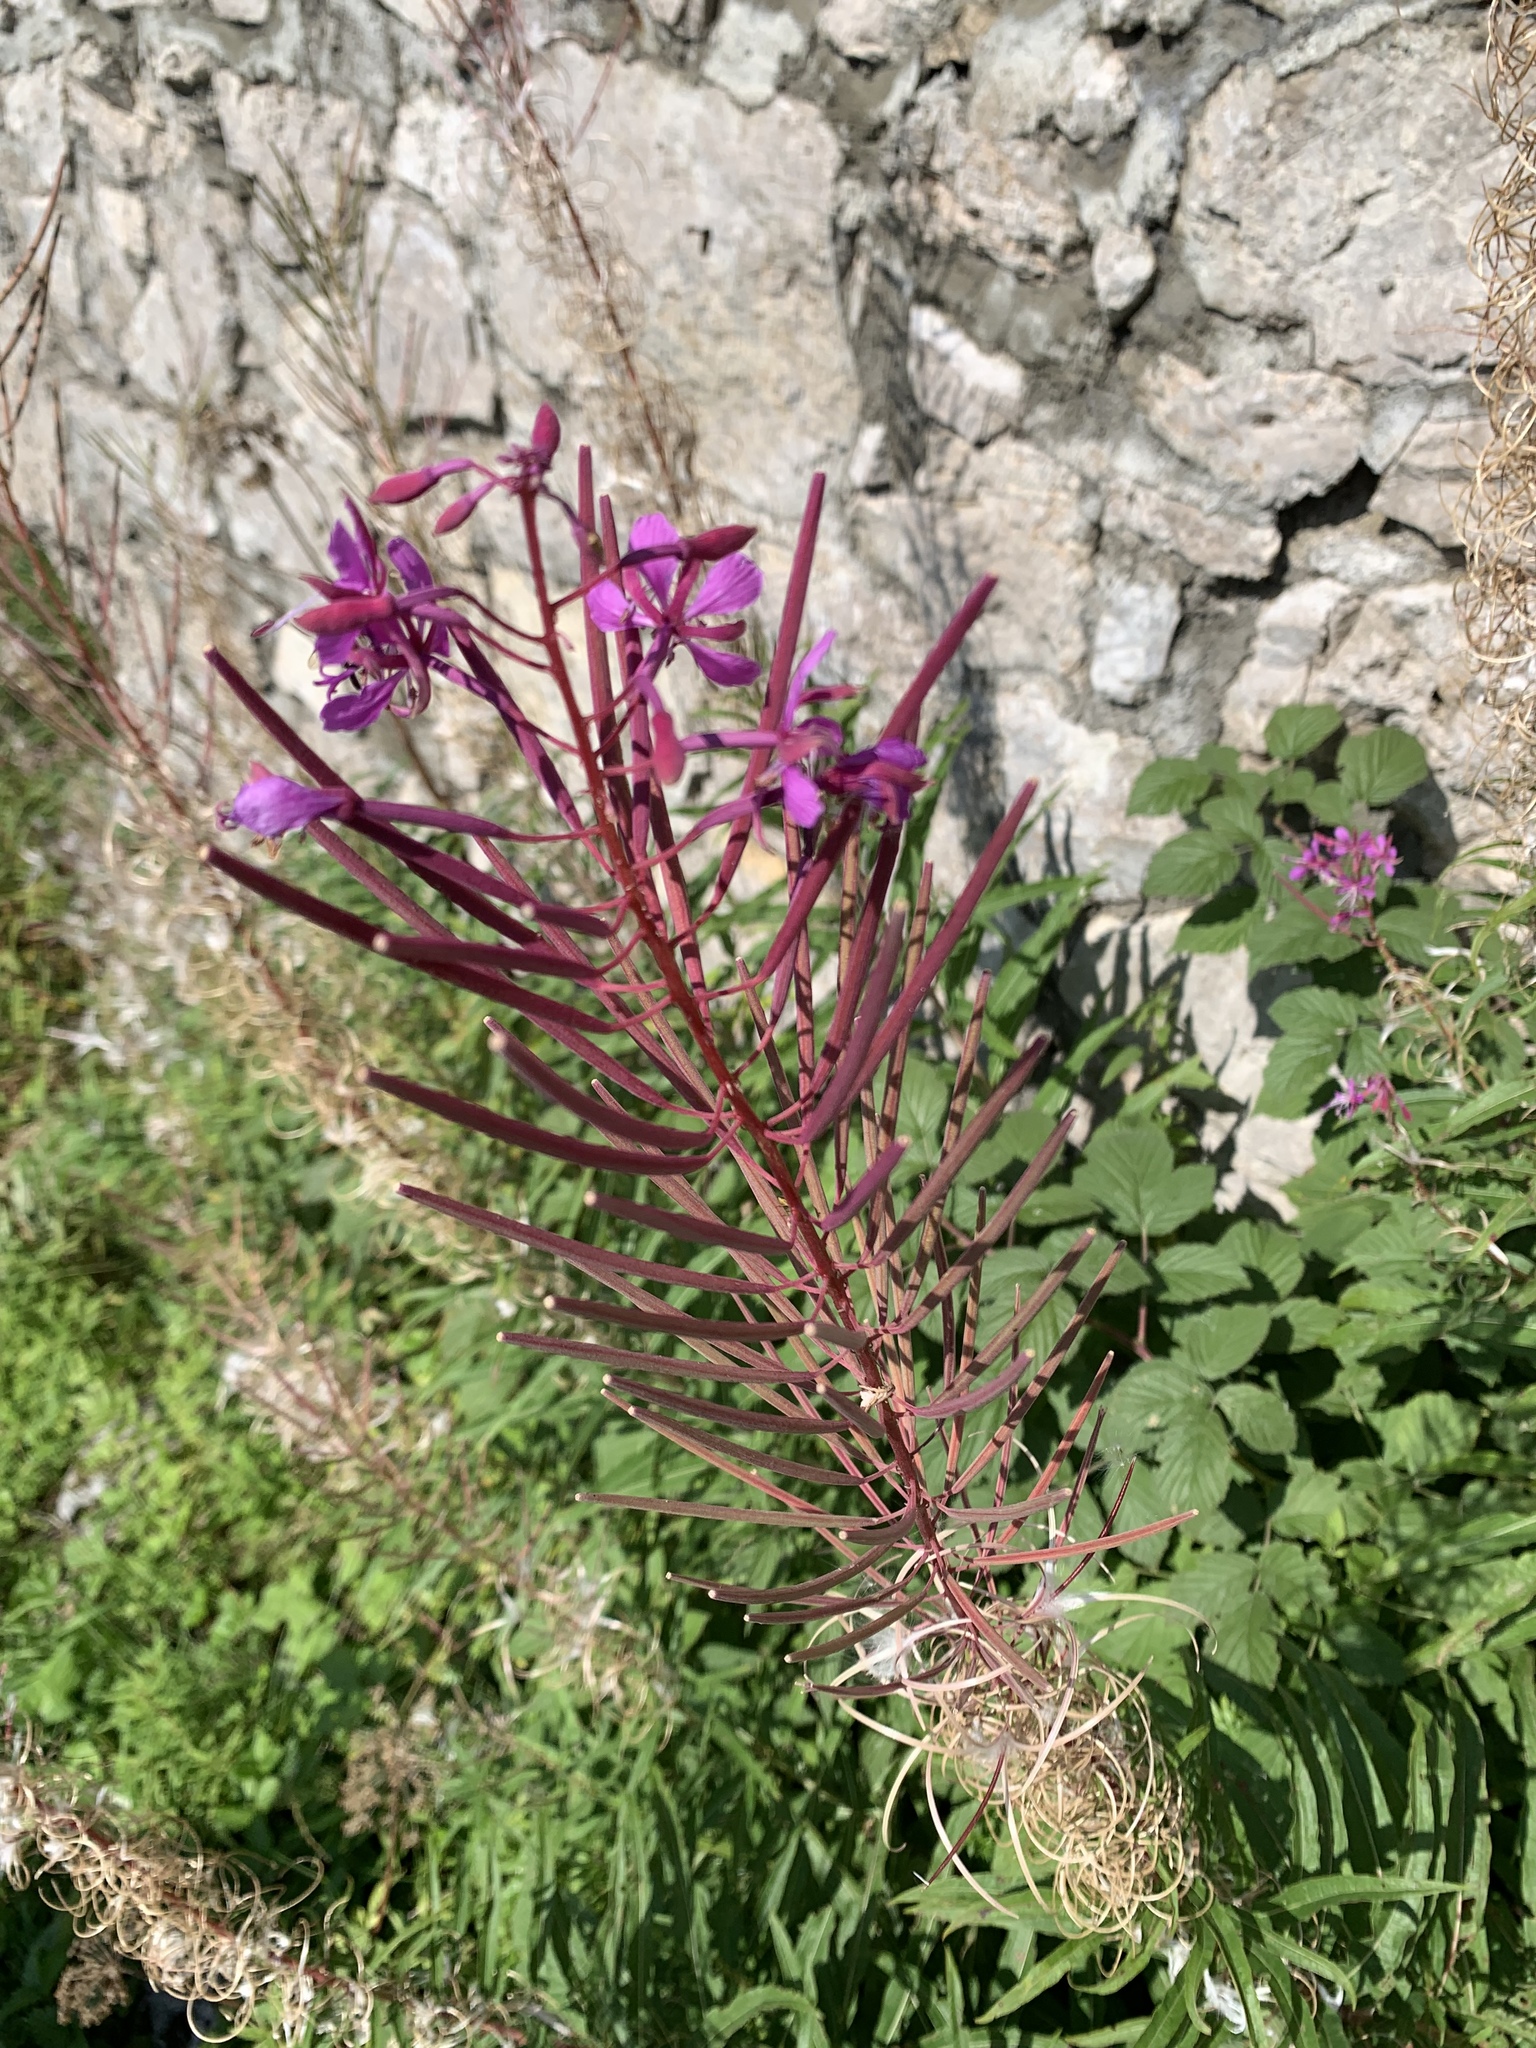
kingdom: Plantae
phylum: Tracheophyta
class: Magnoliopsida
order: Myrtales
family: Onagraceae
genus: Chamaenerion
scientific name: Chamaenerion angustifolium
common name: Fireweed
